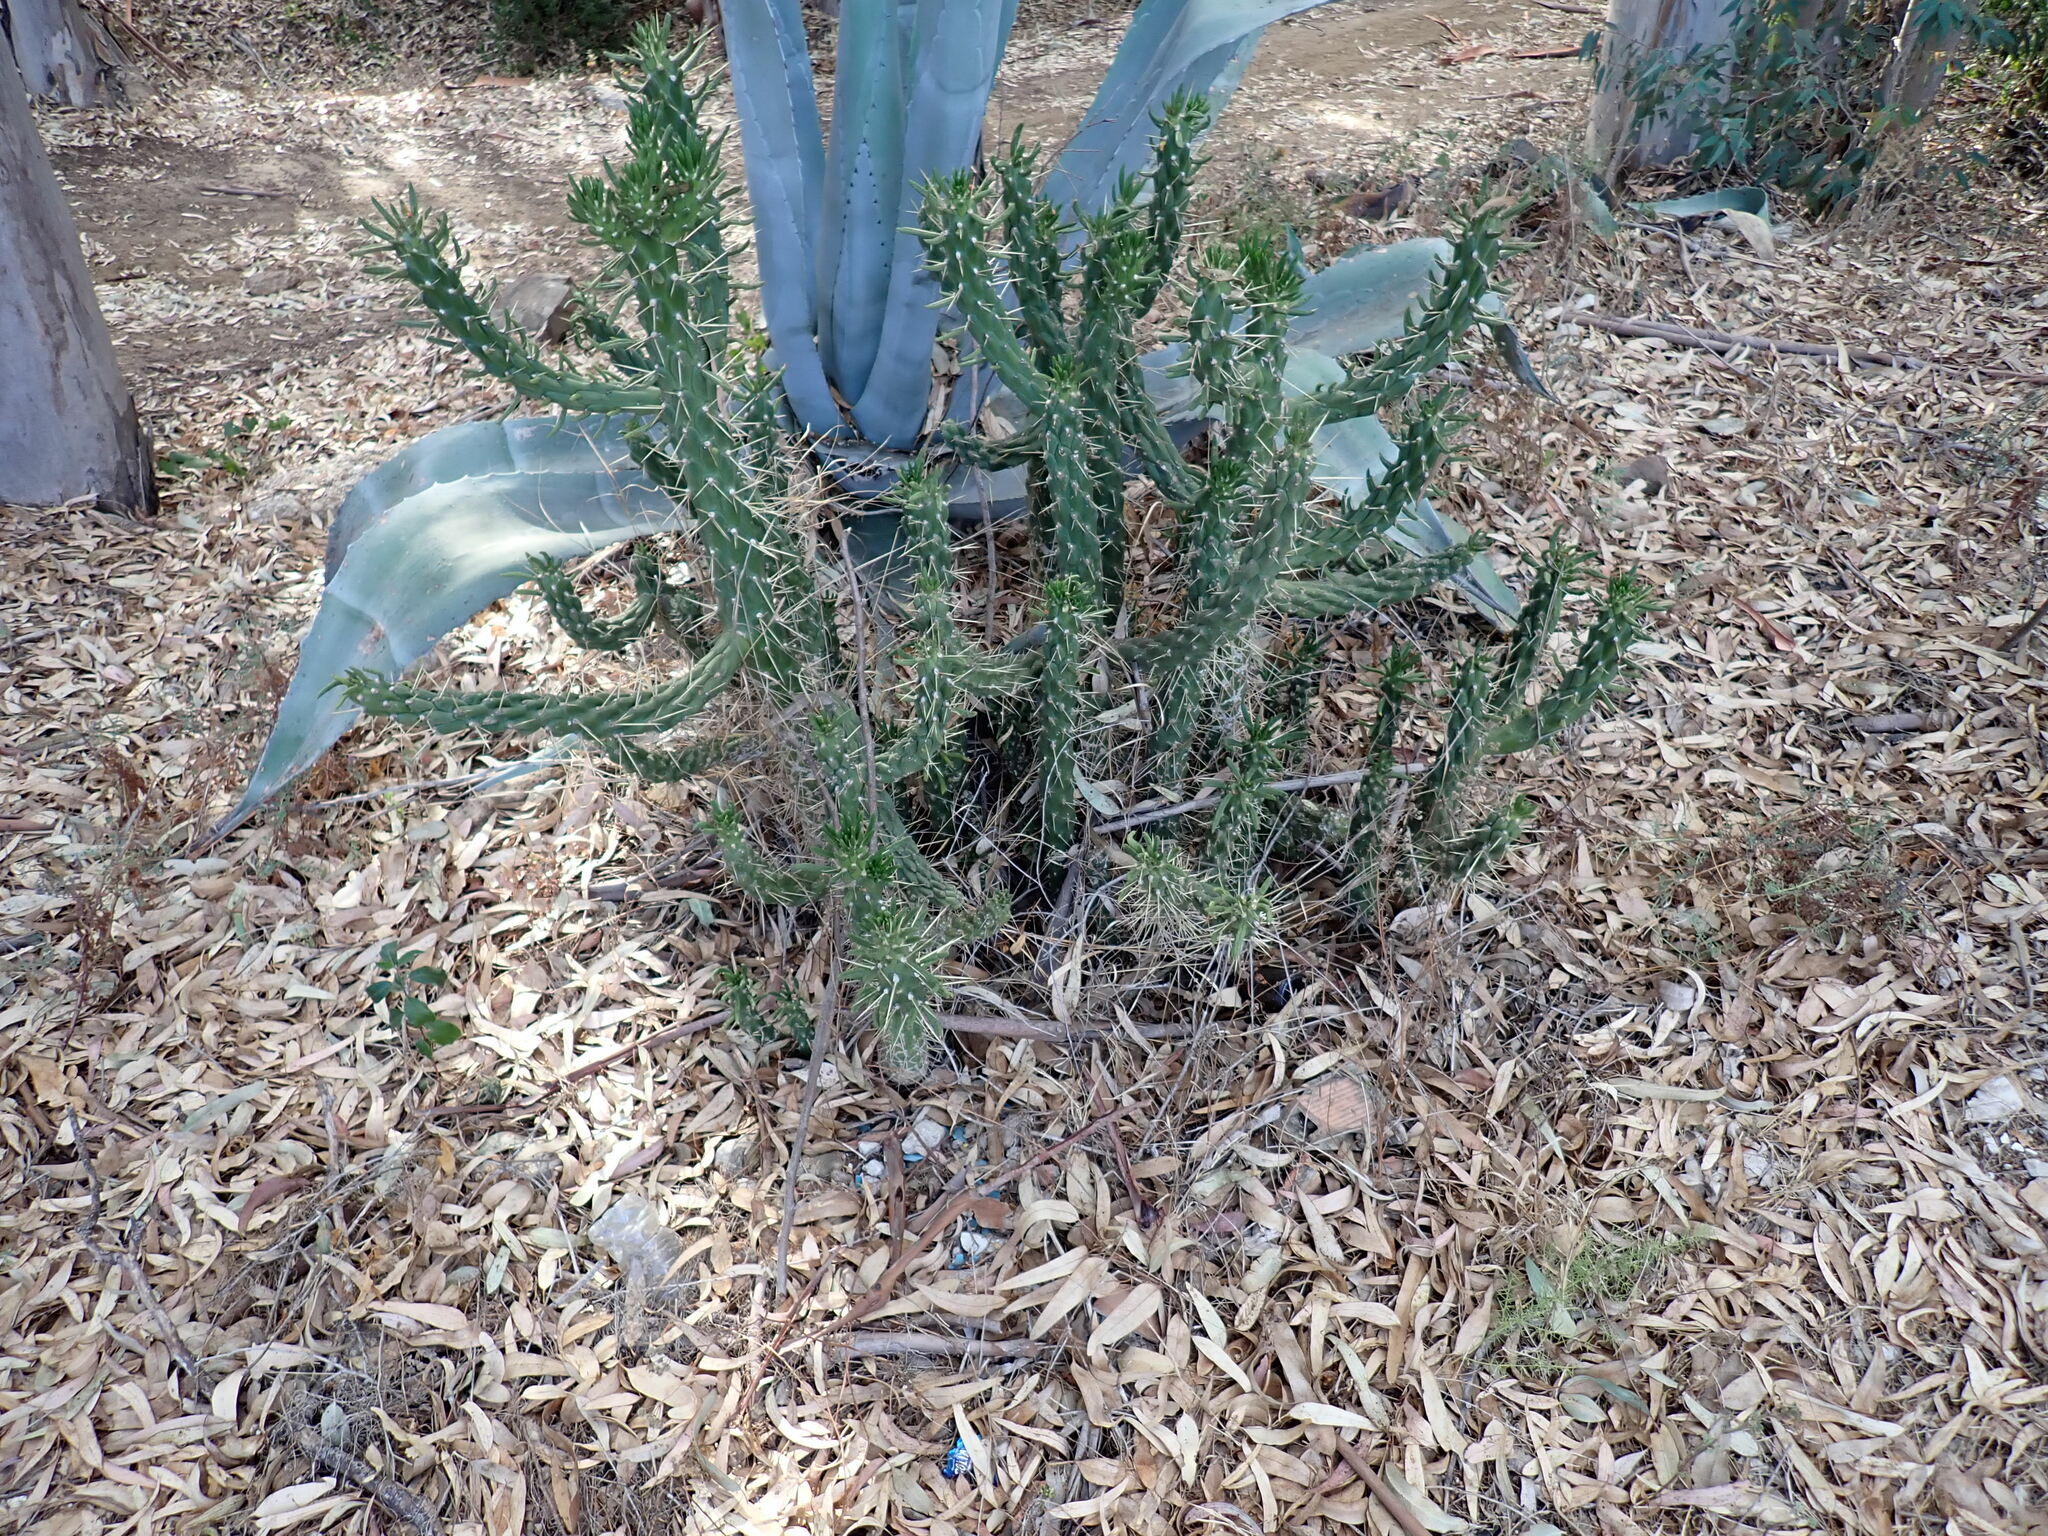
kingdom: Plantae
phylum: Tracheophyta
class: Magnoliopsida
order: Caryophyllales
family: Cactaceae
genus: Austrocylindropuntia
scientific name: Austrocylindropuntia subulata
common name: Eve's needle cactus
